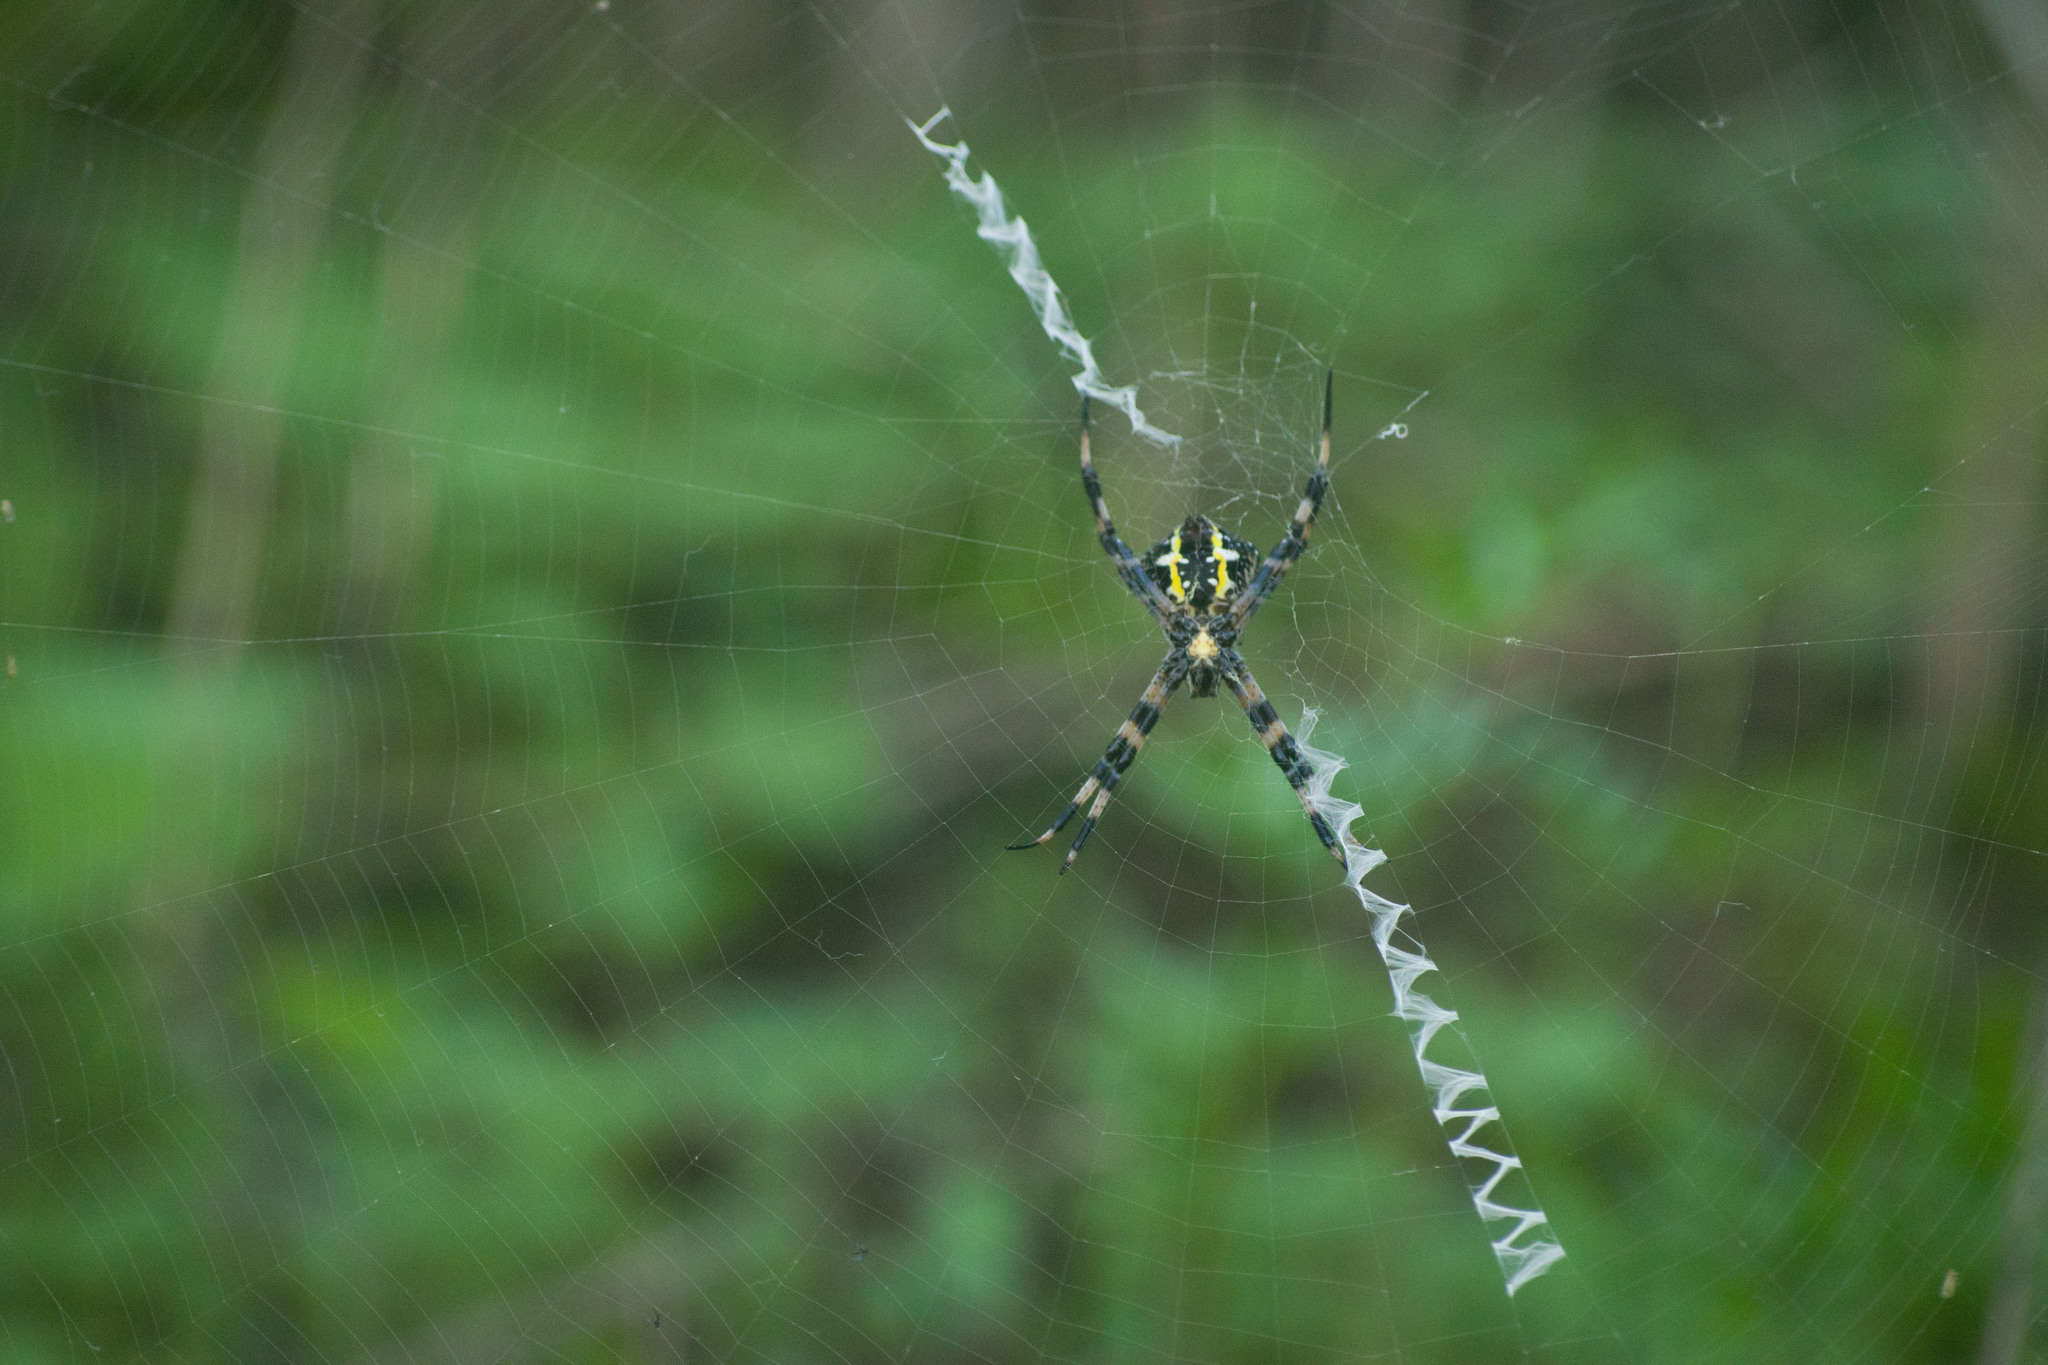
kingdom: Animalia
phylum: Arthropoda
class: Arachnida
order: Araneae
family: Araneidae
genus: Argiope
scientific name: Argiope appensa
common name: Garden spider
